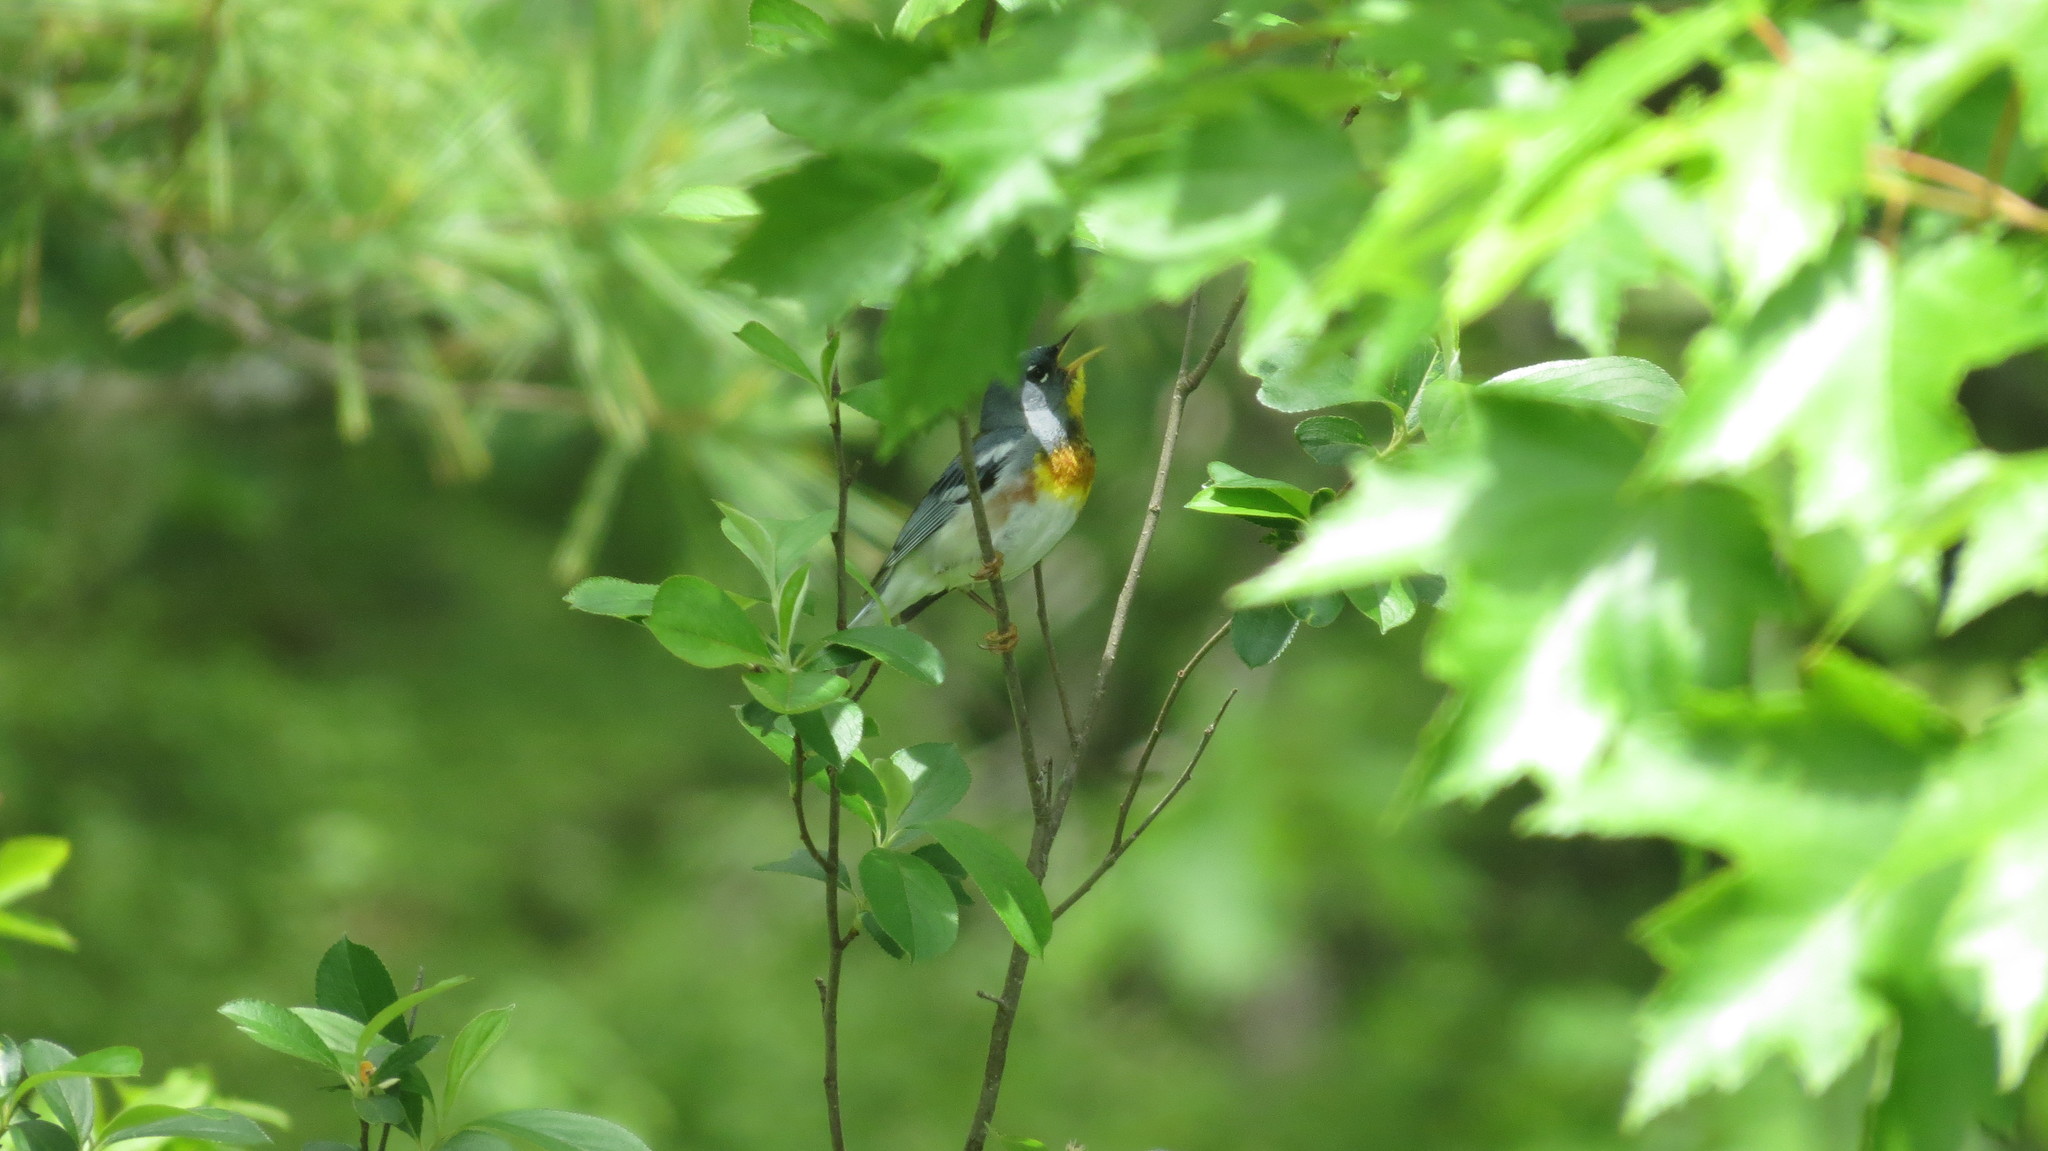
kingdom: Animalia
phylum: Chordata
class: Aves
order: Passeriformes
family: Parulidae
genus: Setophaga
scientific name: Setophaga americana
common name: Northern parula
